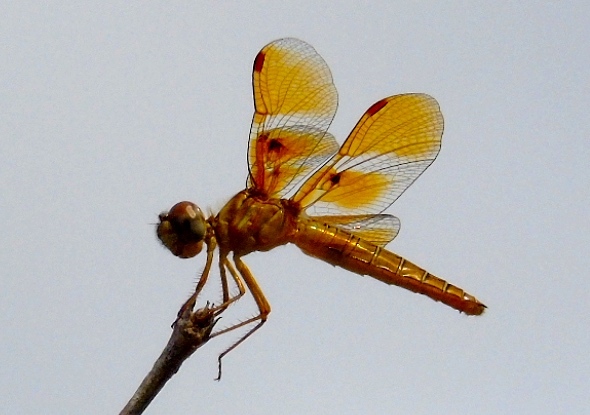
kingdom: Animalia
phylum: Arthropoda
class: Insecta
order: Odonata
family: Libellulidae
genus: Perithemis
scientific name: Perithemis
